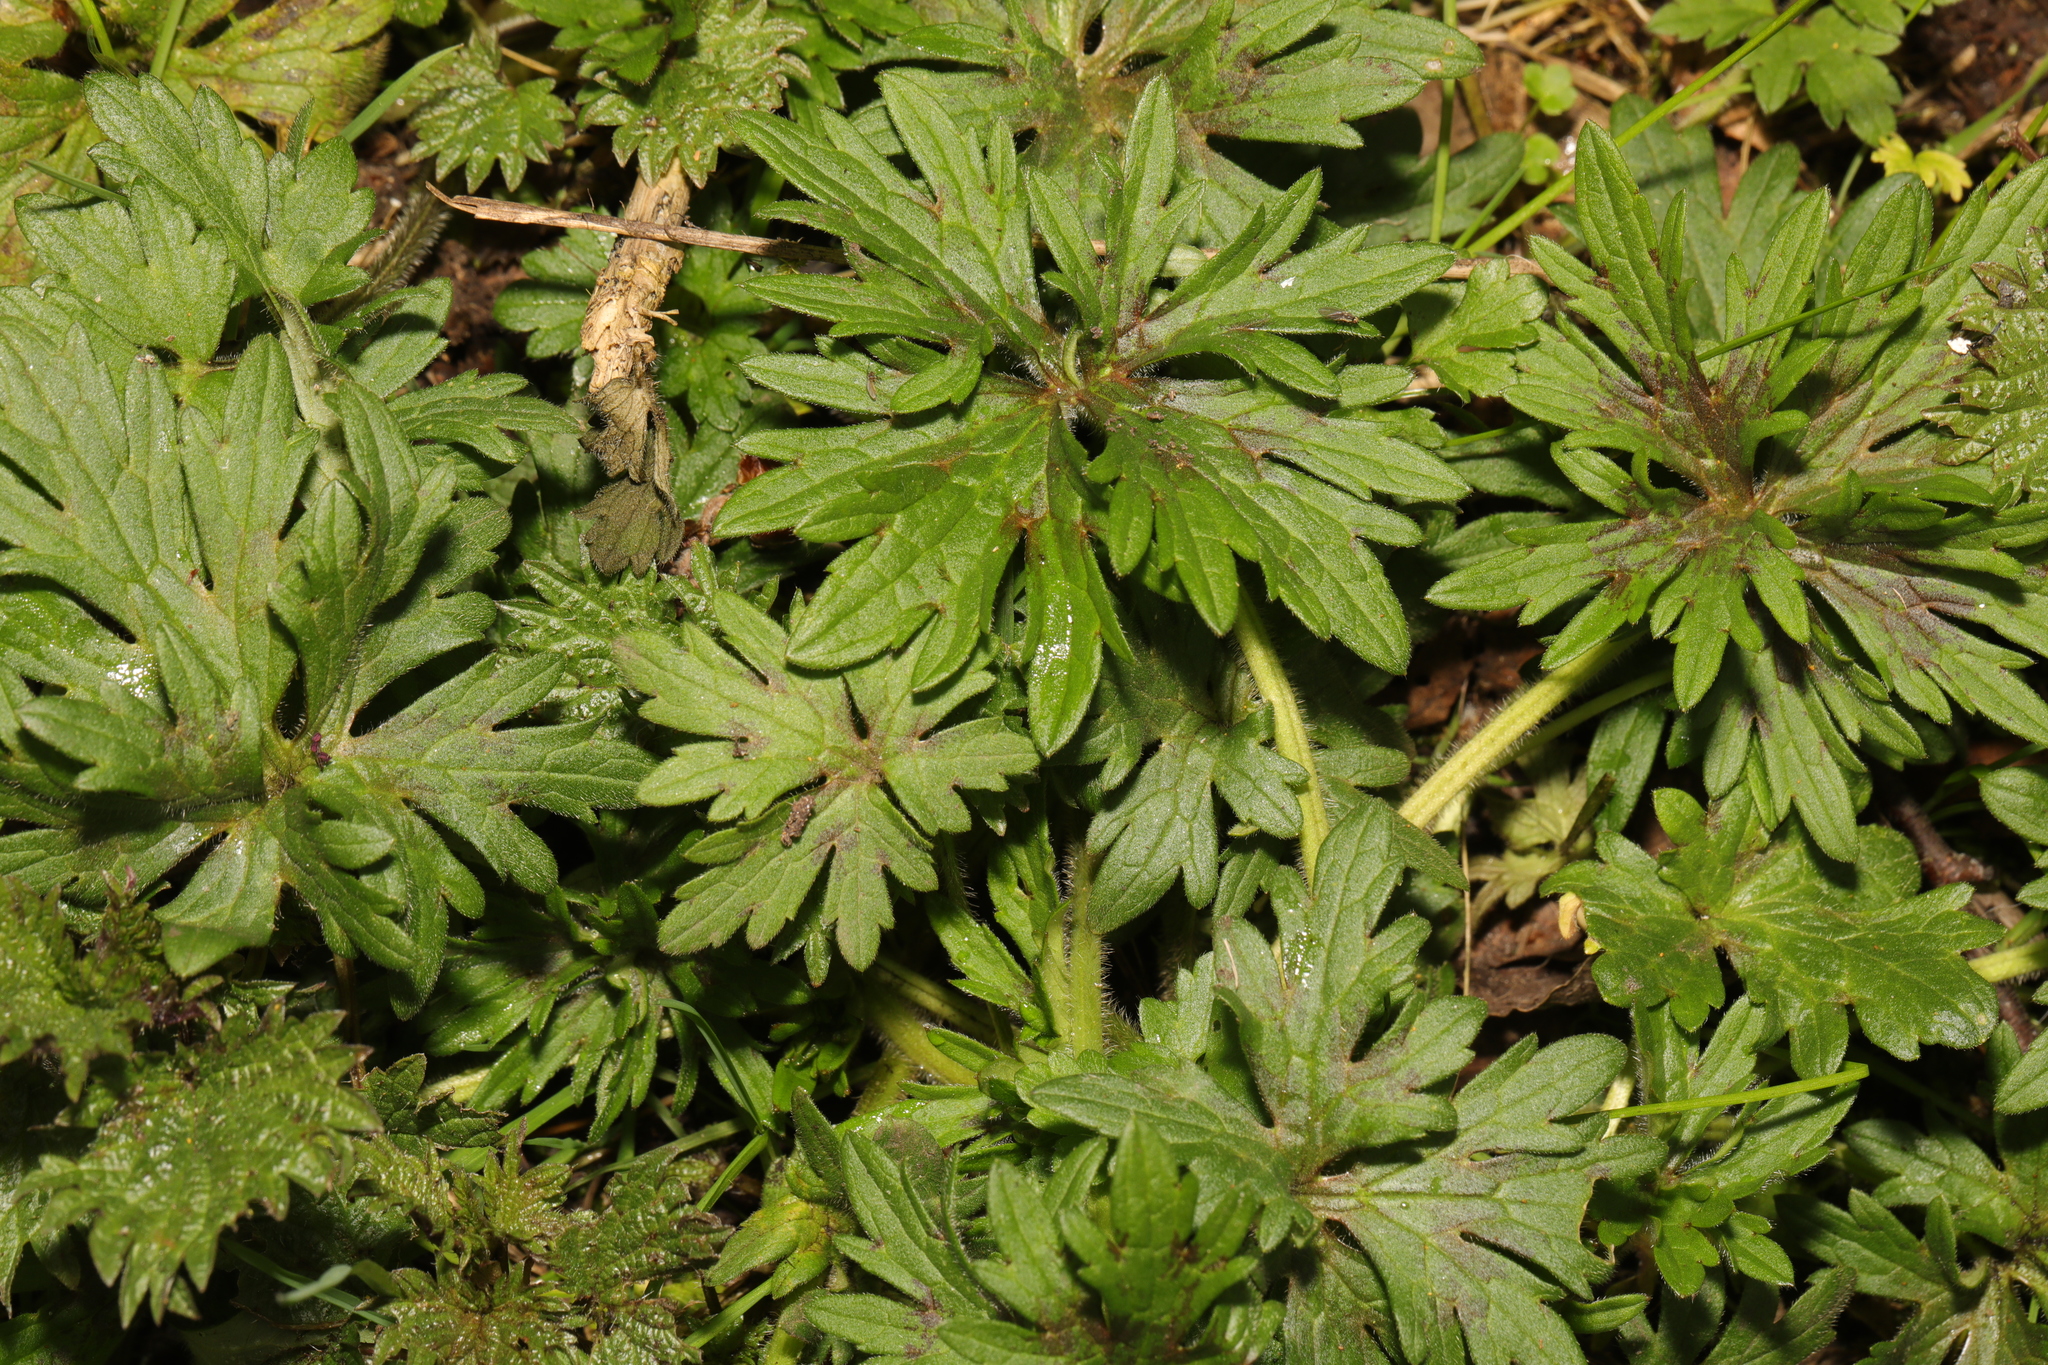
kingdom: Plantae
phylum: Tracheophyta
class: Magnoliopsida
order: Ranunculales
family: Ranunculaceae
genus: Ranunculus
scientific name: Ranunculus acris
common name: Meadow buttercup
